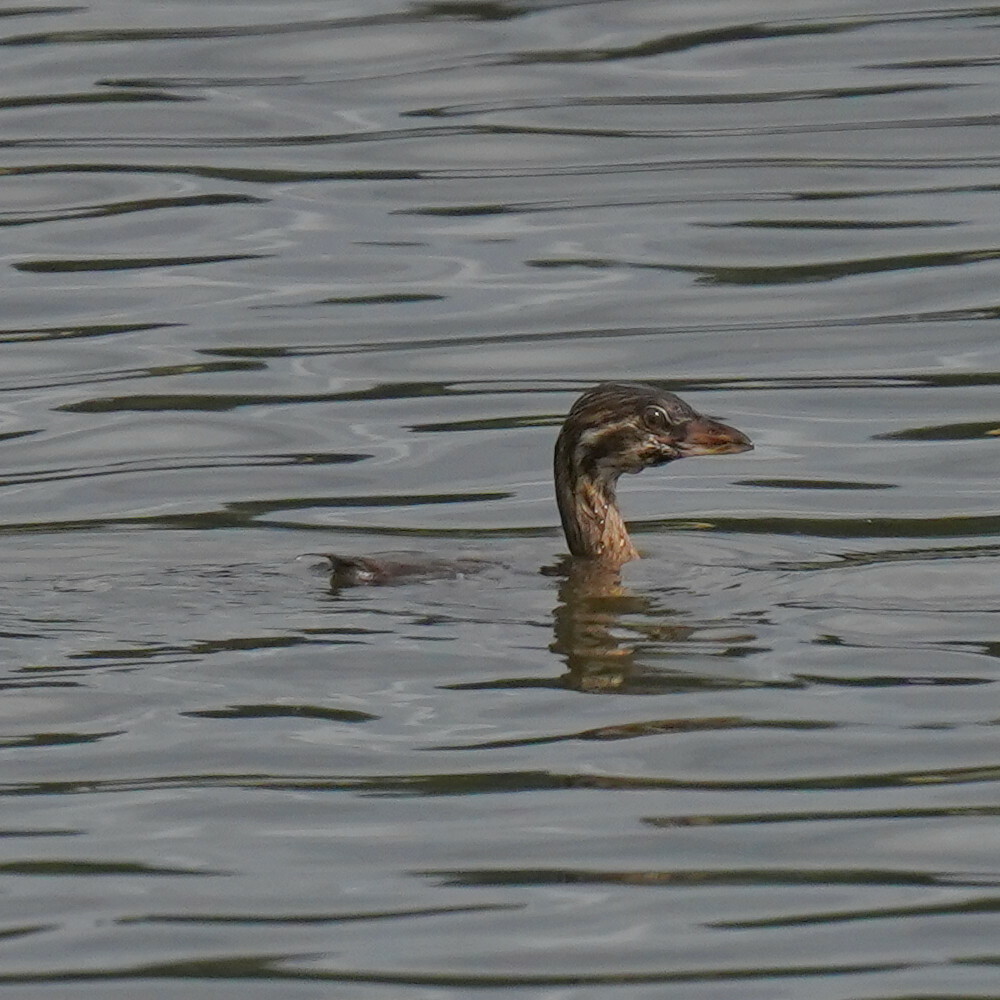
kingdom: Animalia
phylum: Chordata
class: Aves
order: Podicipediformes
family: Podicipedidae
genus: Podilymbus
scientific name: Podilymbus podiceps
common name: Pied-billed grebe
